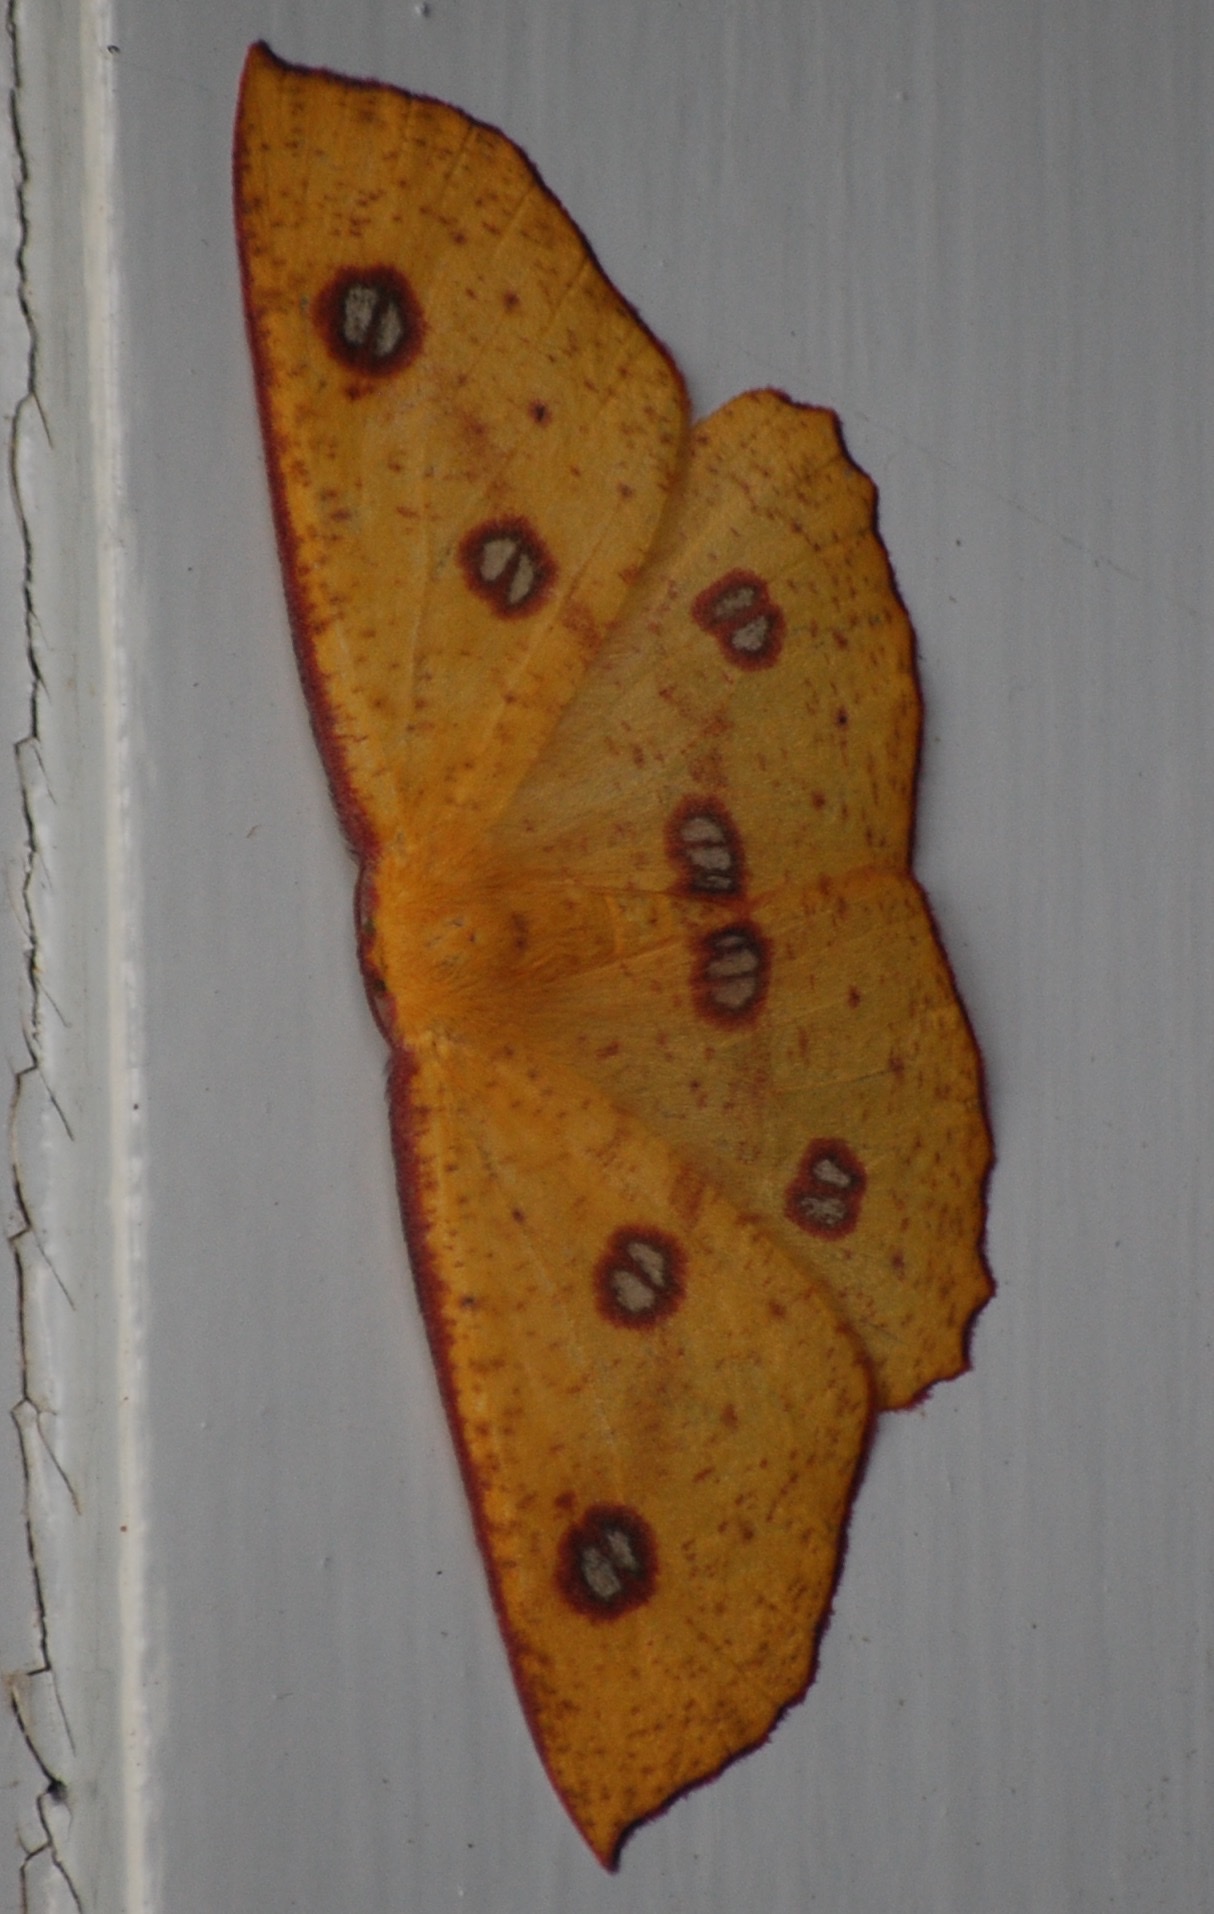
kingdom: Animalia
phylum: Arthropoda
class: Insecta
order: Lepidoptera
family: Geometridae
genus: Xyridacma
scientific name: Xyridacma alectoraria
